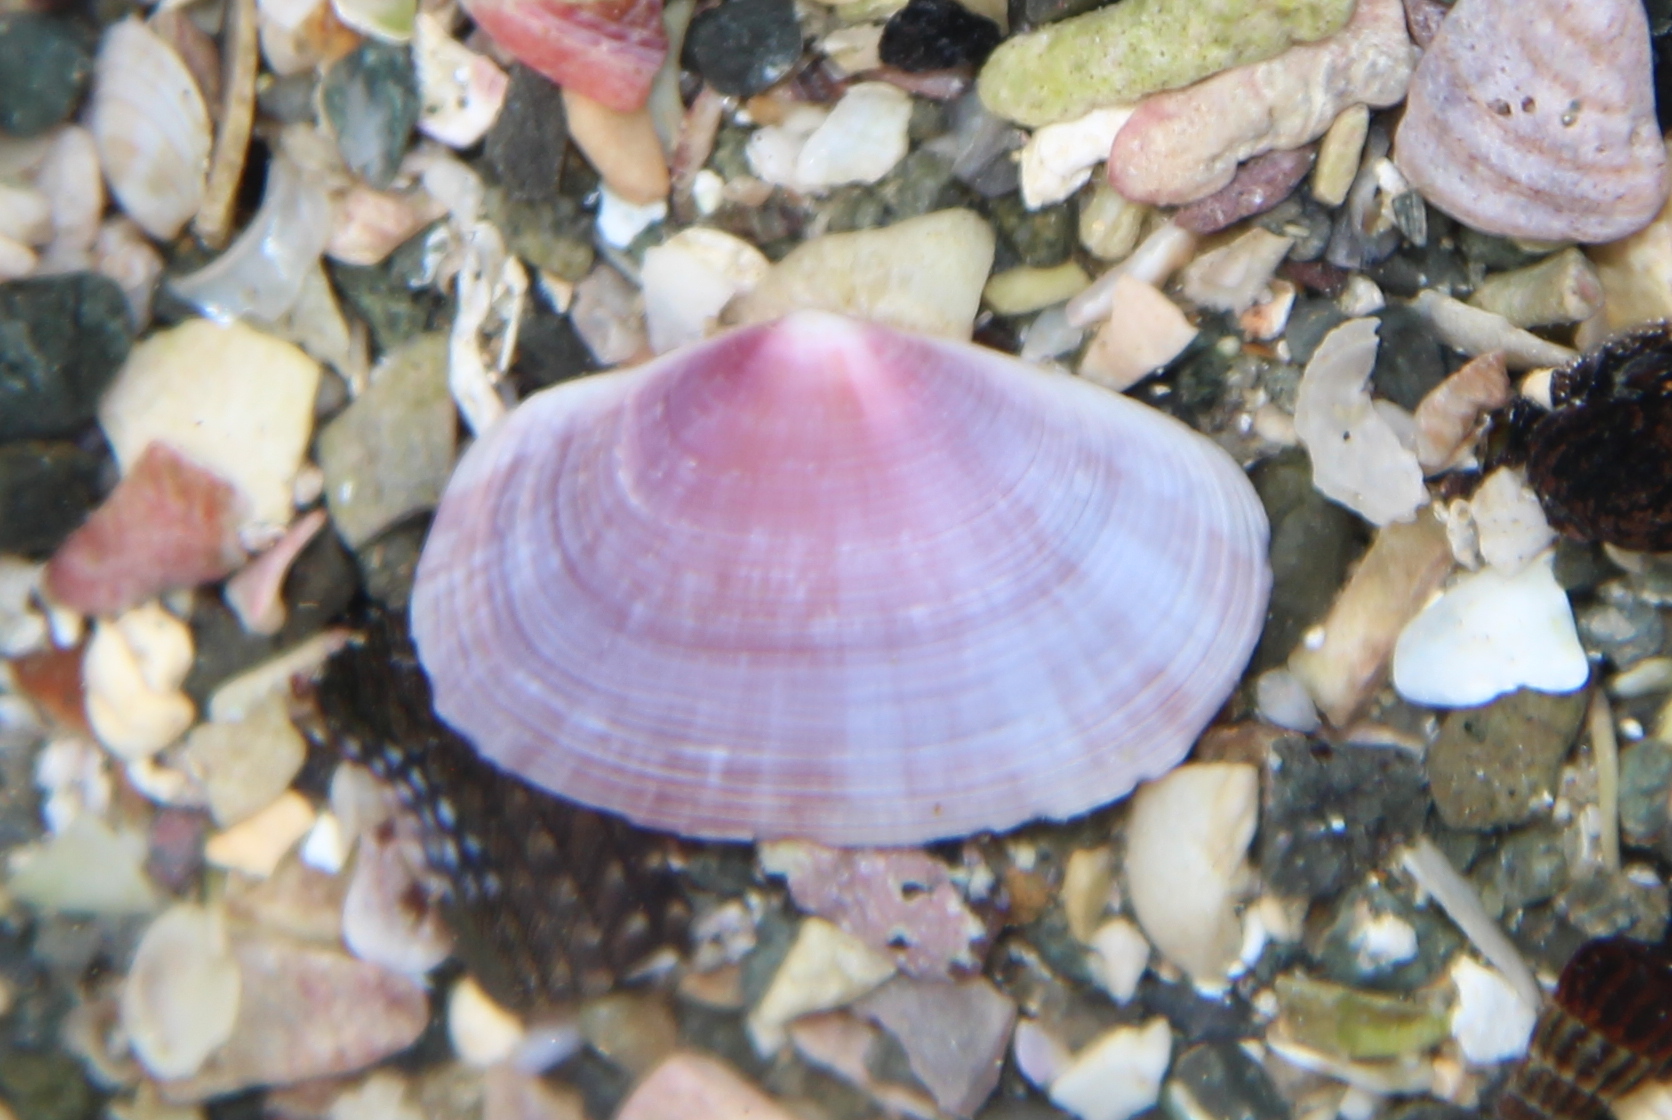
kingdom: Animalia
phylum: Mollusca
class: Bivalvia
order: Cardiida
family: Psammobiidae
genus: Gari
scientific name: Gari stangeri
